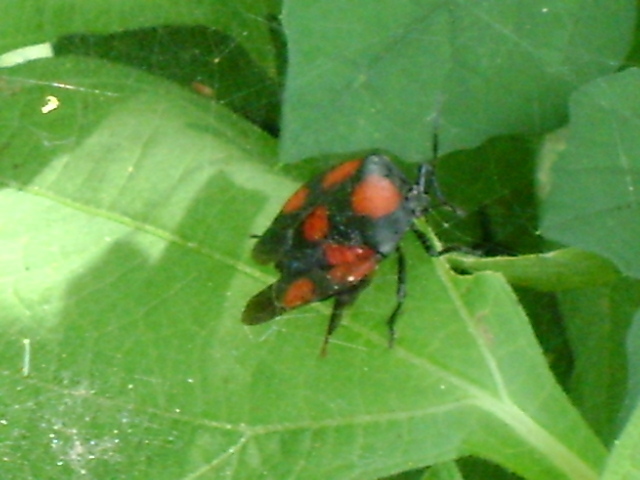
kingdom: Animalia
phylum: Arthropoda
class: Insecta
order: Hemiptera
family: Pentatomidae
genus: Brachystethus
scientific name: Brachystethus rubromaculatus
